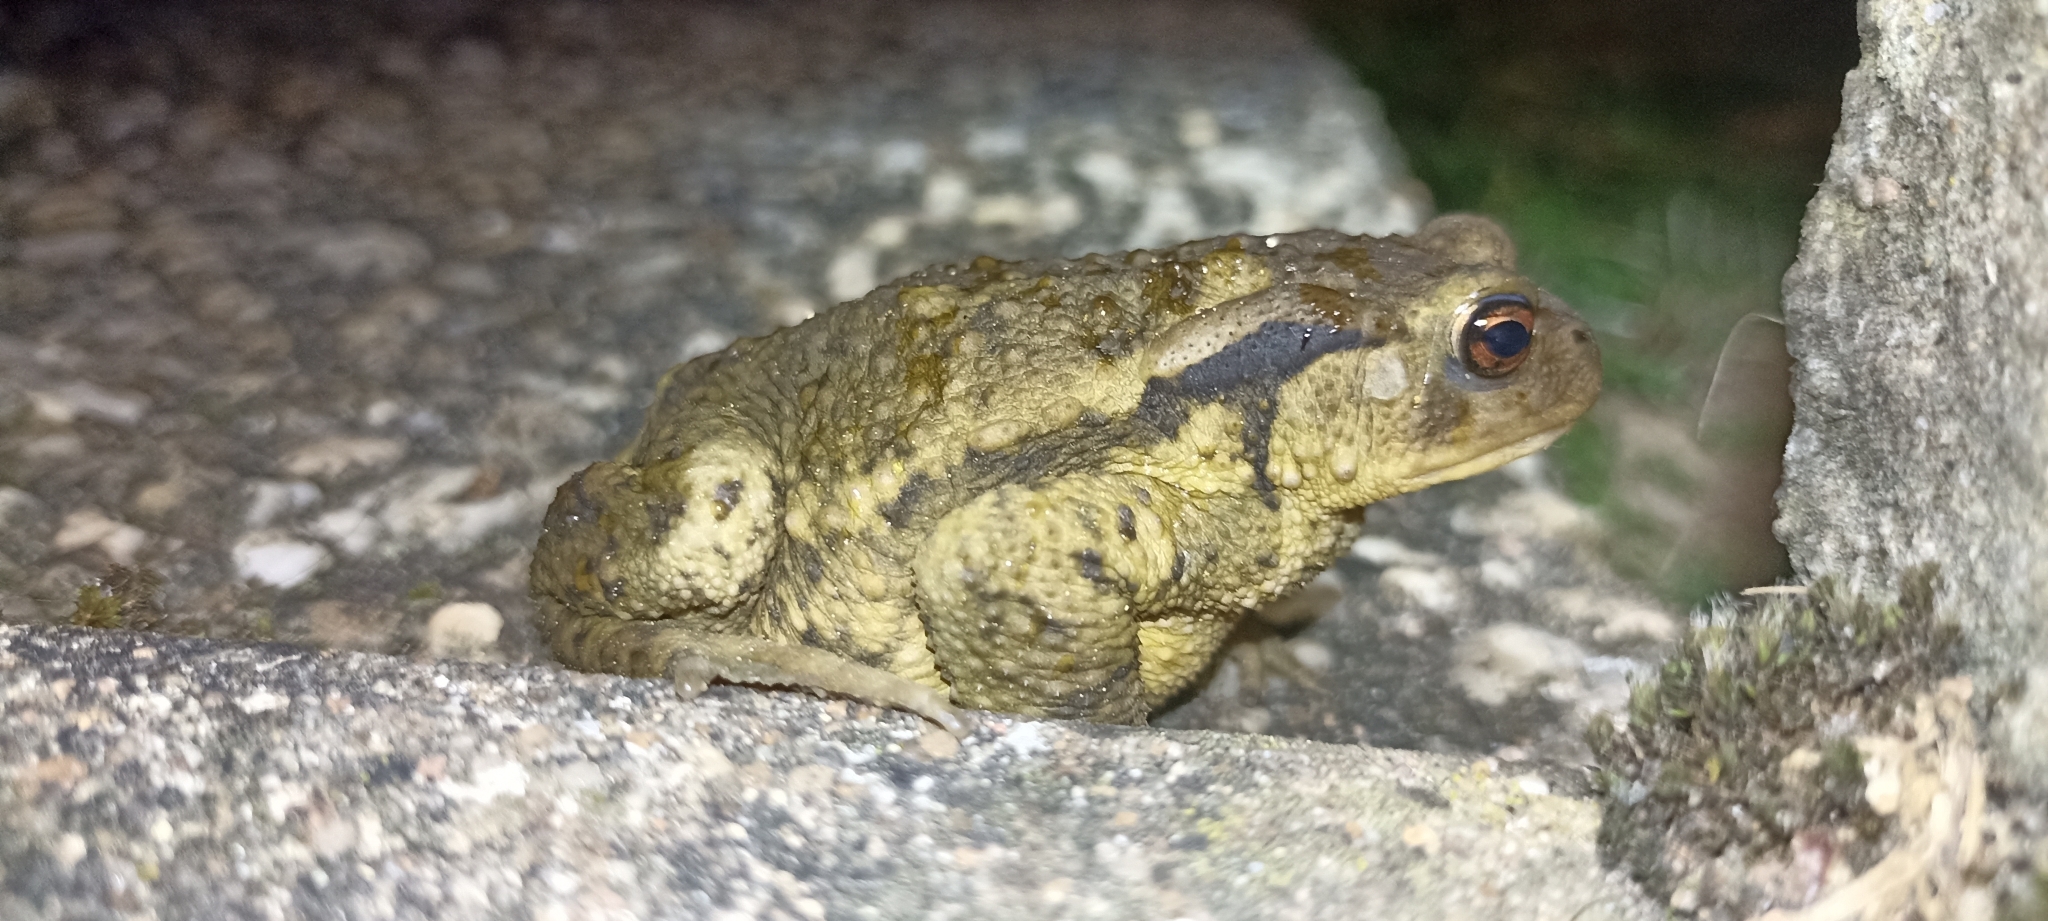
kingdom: Animalia
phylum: Chordata
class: Amphibia
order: Anura
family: Bufonidae
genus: Bufo
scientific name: Bufo spinosus
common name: Western common toad
